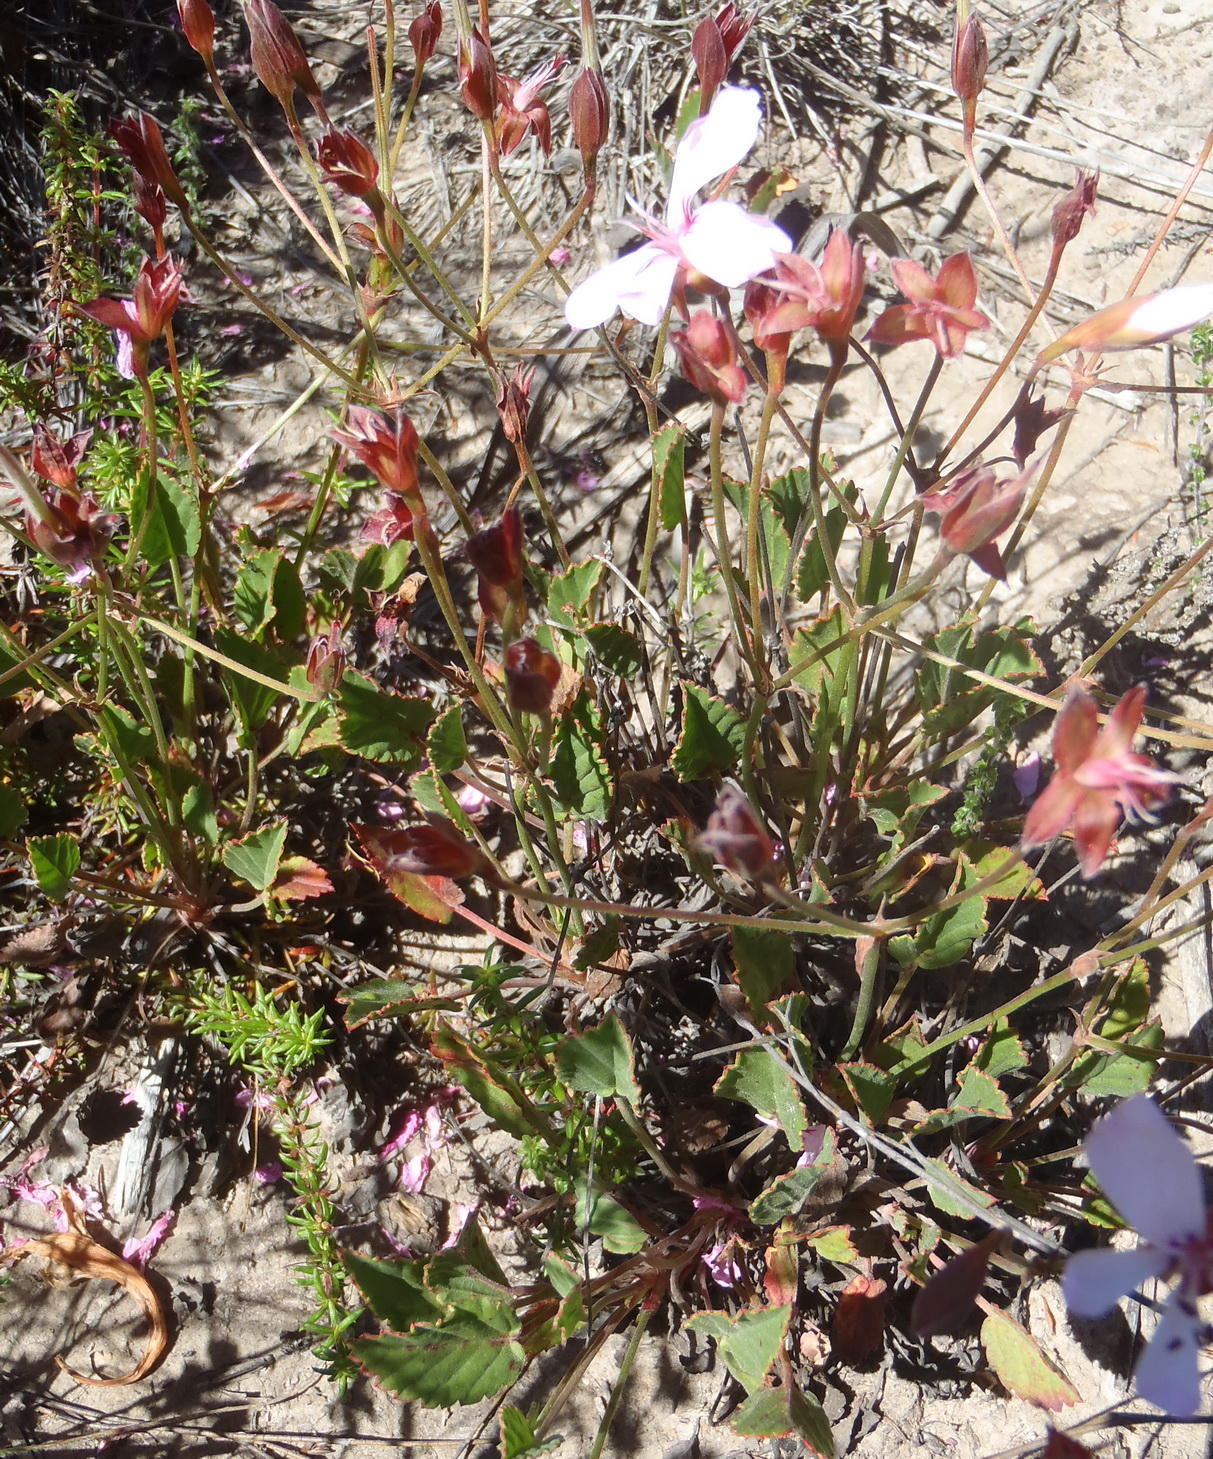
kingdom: Plantae
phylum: Tracheophyta
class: Magnoliopsida
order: Geraniales
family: Geraniaceae
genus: Pelargonium
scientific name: Pelargonium ovale
